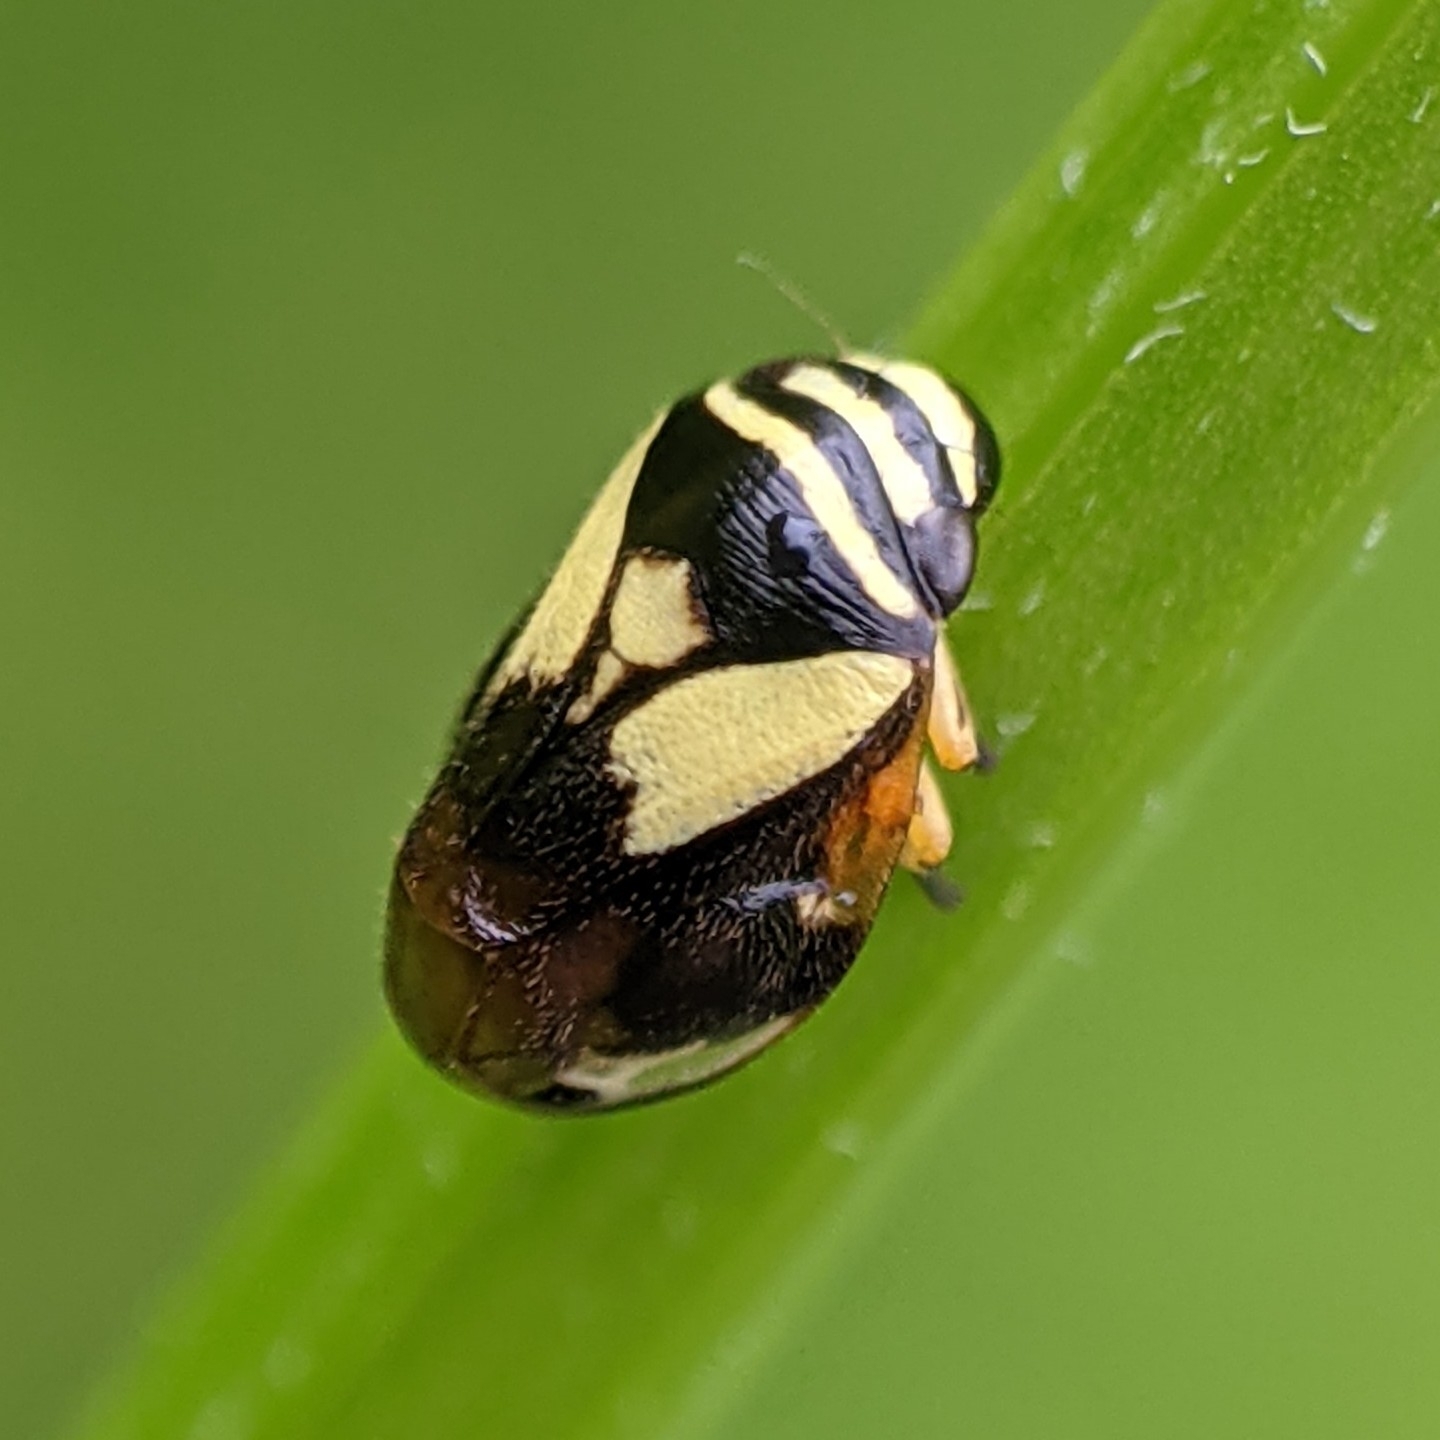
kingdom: Animalia
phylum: Arthropoda
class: Insecta
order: Hemiptera
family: Clastopteridae
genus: Clastoptera
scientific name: Clastoptera proteus
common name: Dogwood spittlebug
